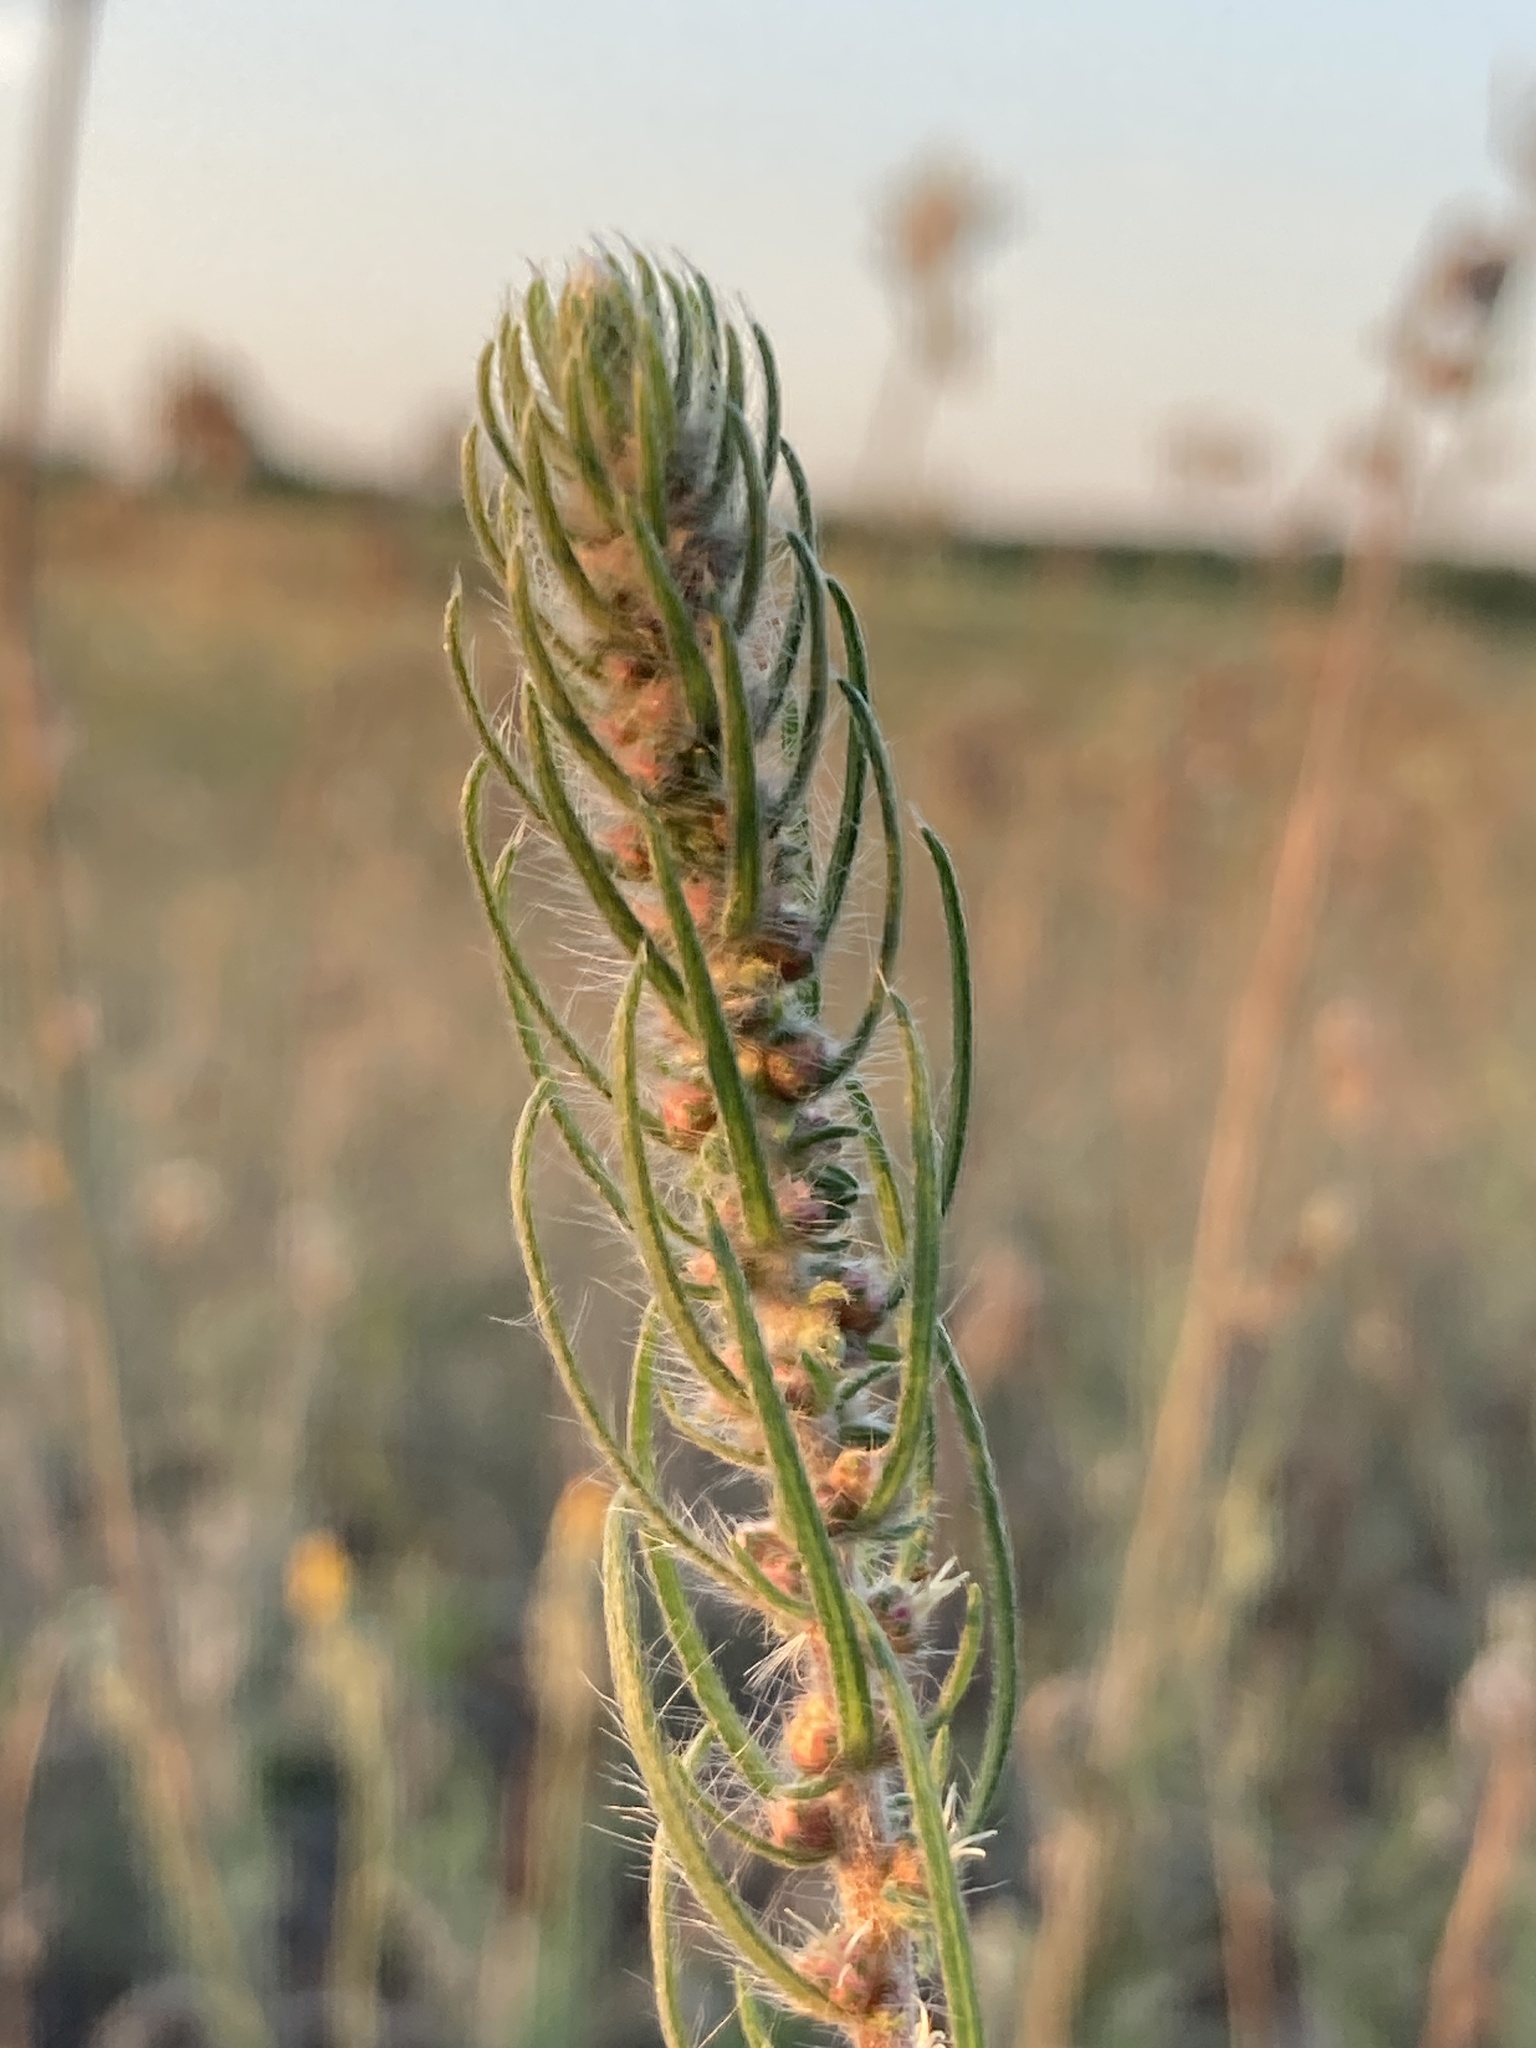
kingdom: Plantae
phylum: Tracheophyta
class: Magnoliopsida
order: Caryophyllales
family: Amaranthaceae
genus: Bassia
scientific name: Bassia laniflora
